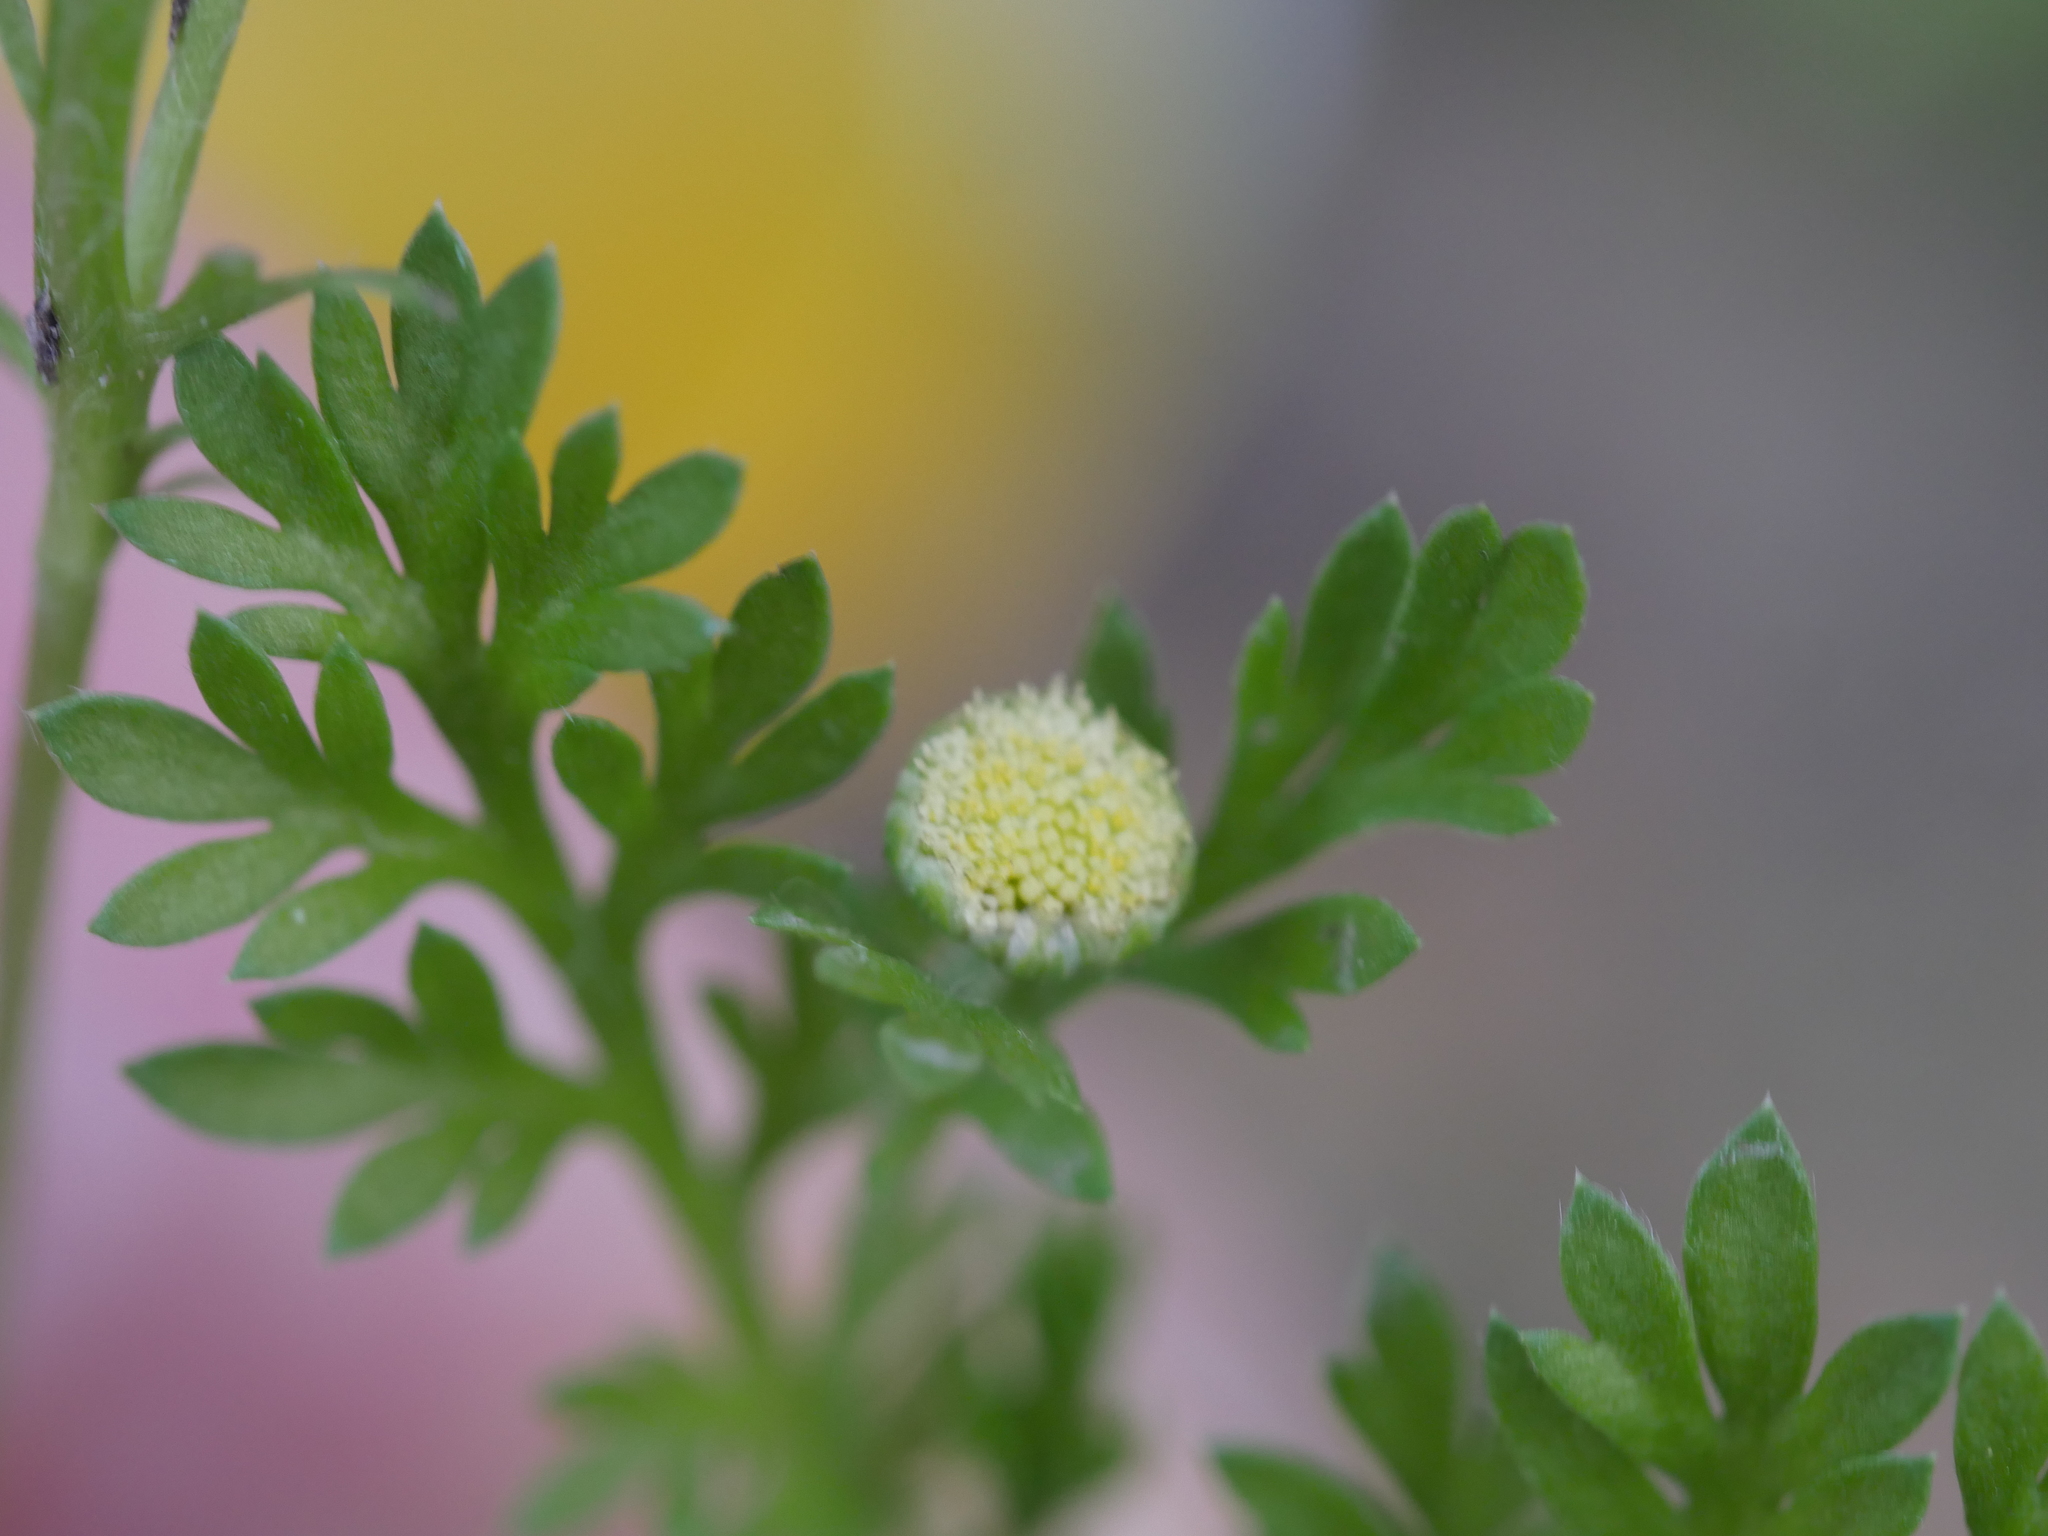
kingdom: Plantae
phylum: Tracheophyta
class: Magnoliopsida
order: Asterales
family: Asteraceae
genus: Cotula
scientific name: Cotula australis
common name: Australian waterbuttons
